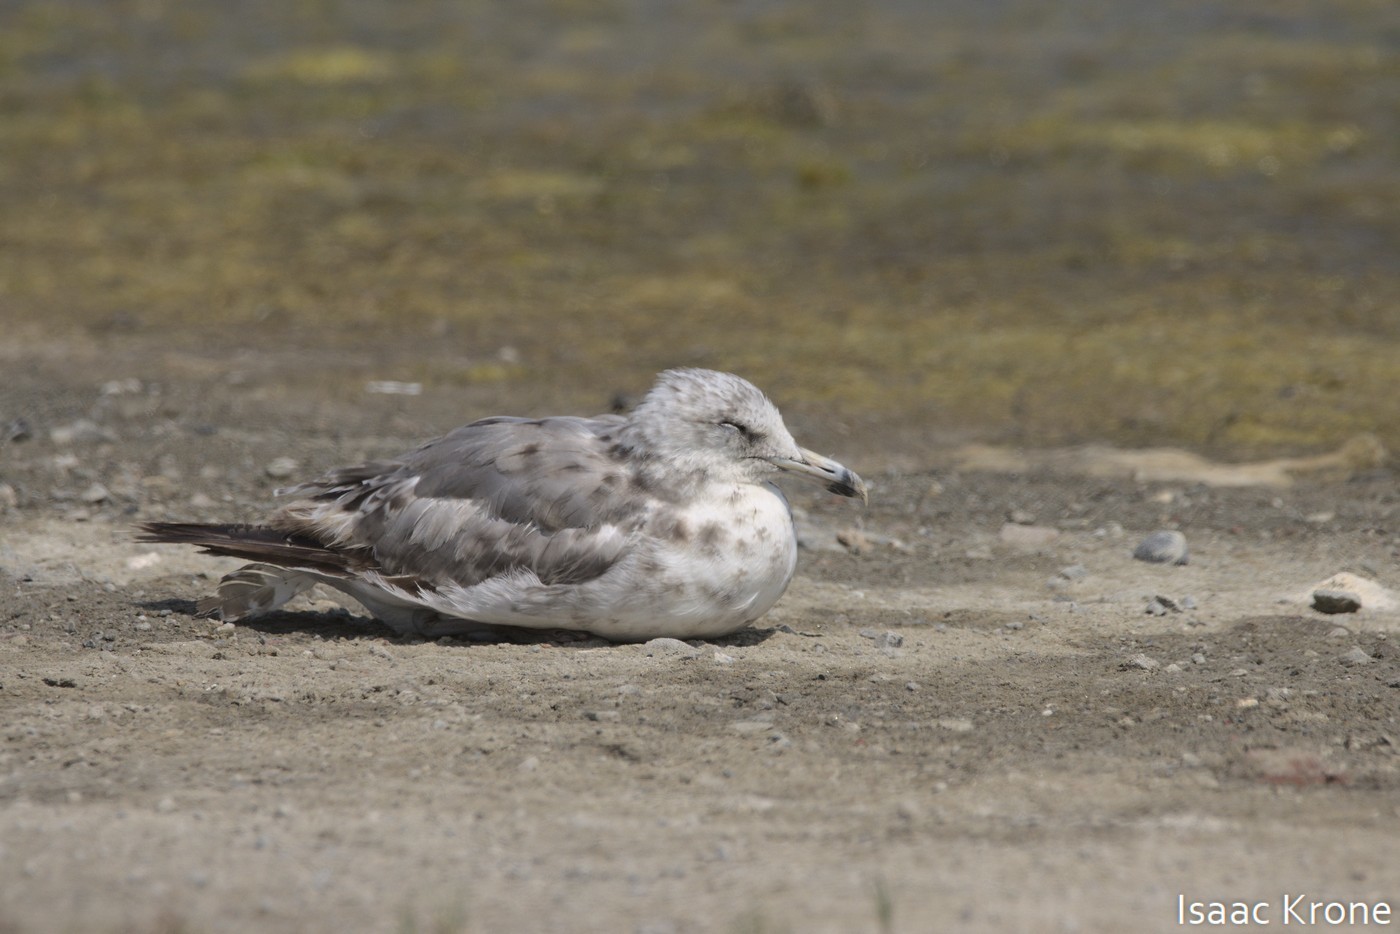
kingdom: Animalia
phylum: Chordata
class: Aves
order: Charadriiformes
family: Laridae
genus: Larus
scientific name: Larus californicus
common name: California gull
